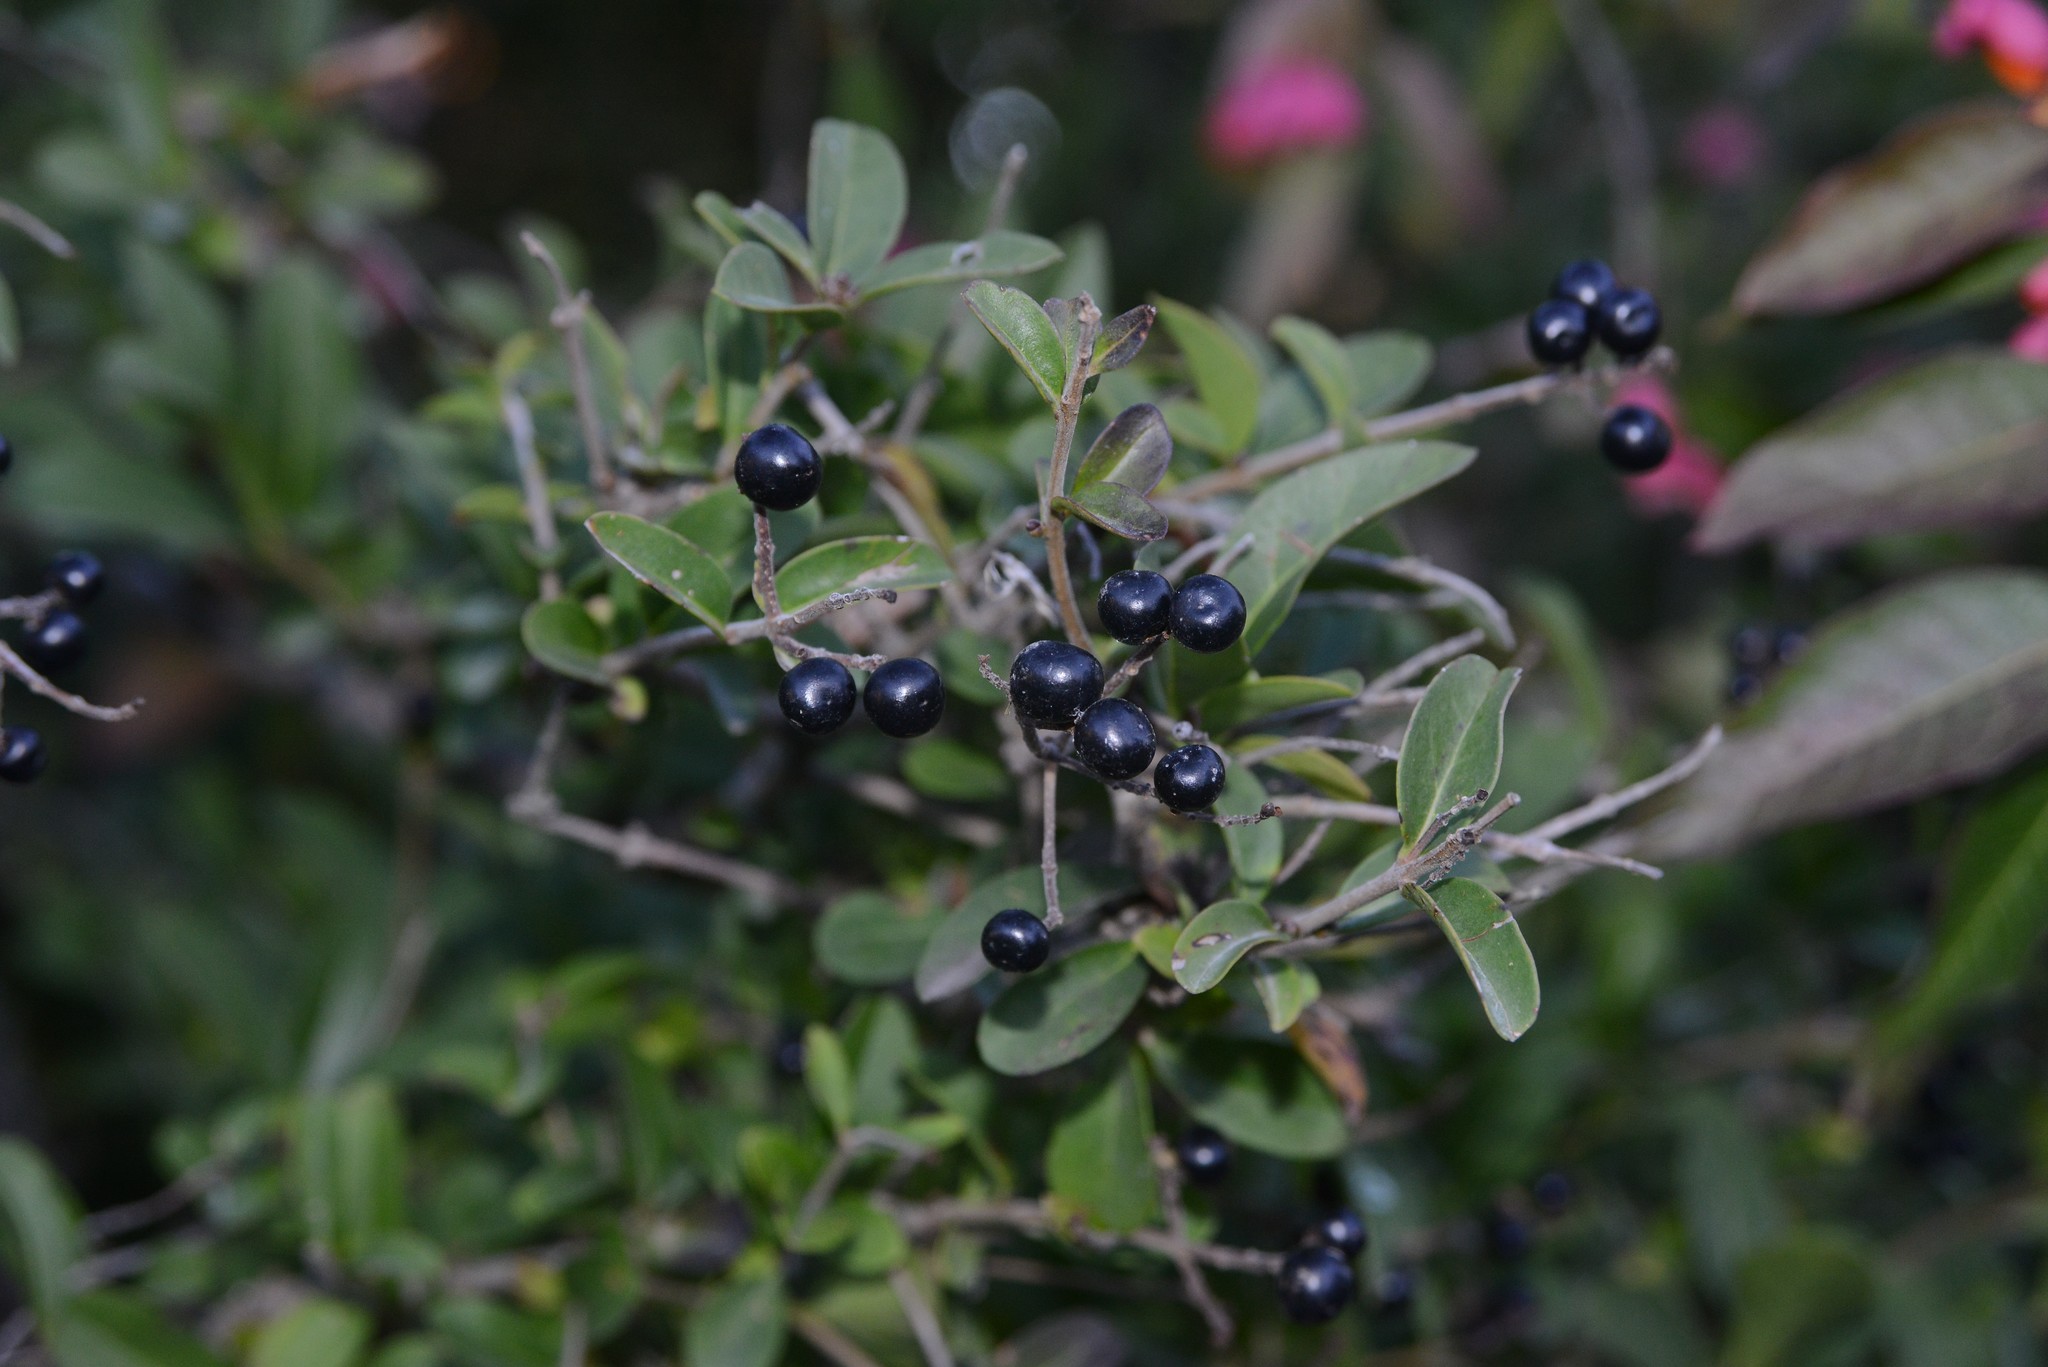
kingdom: Plantae
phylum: Tracheophyta
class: Magnoliopsida
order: Lamiales
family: Oleaceae
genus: Ligustrum
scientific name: Ligustrum vulgare
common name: Wild privet
